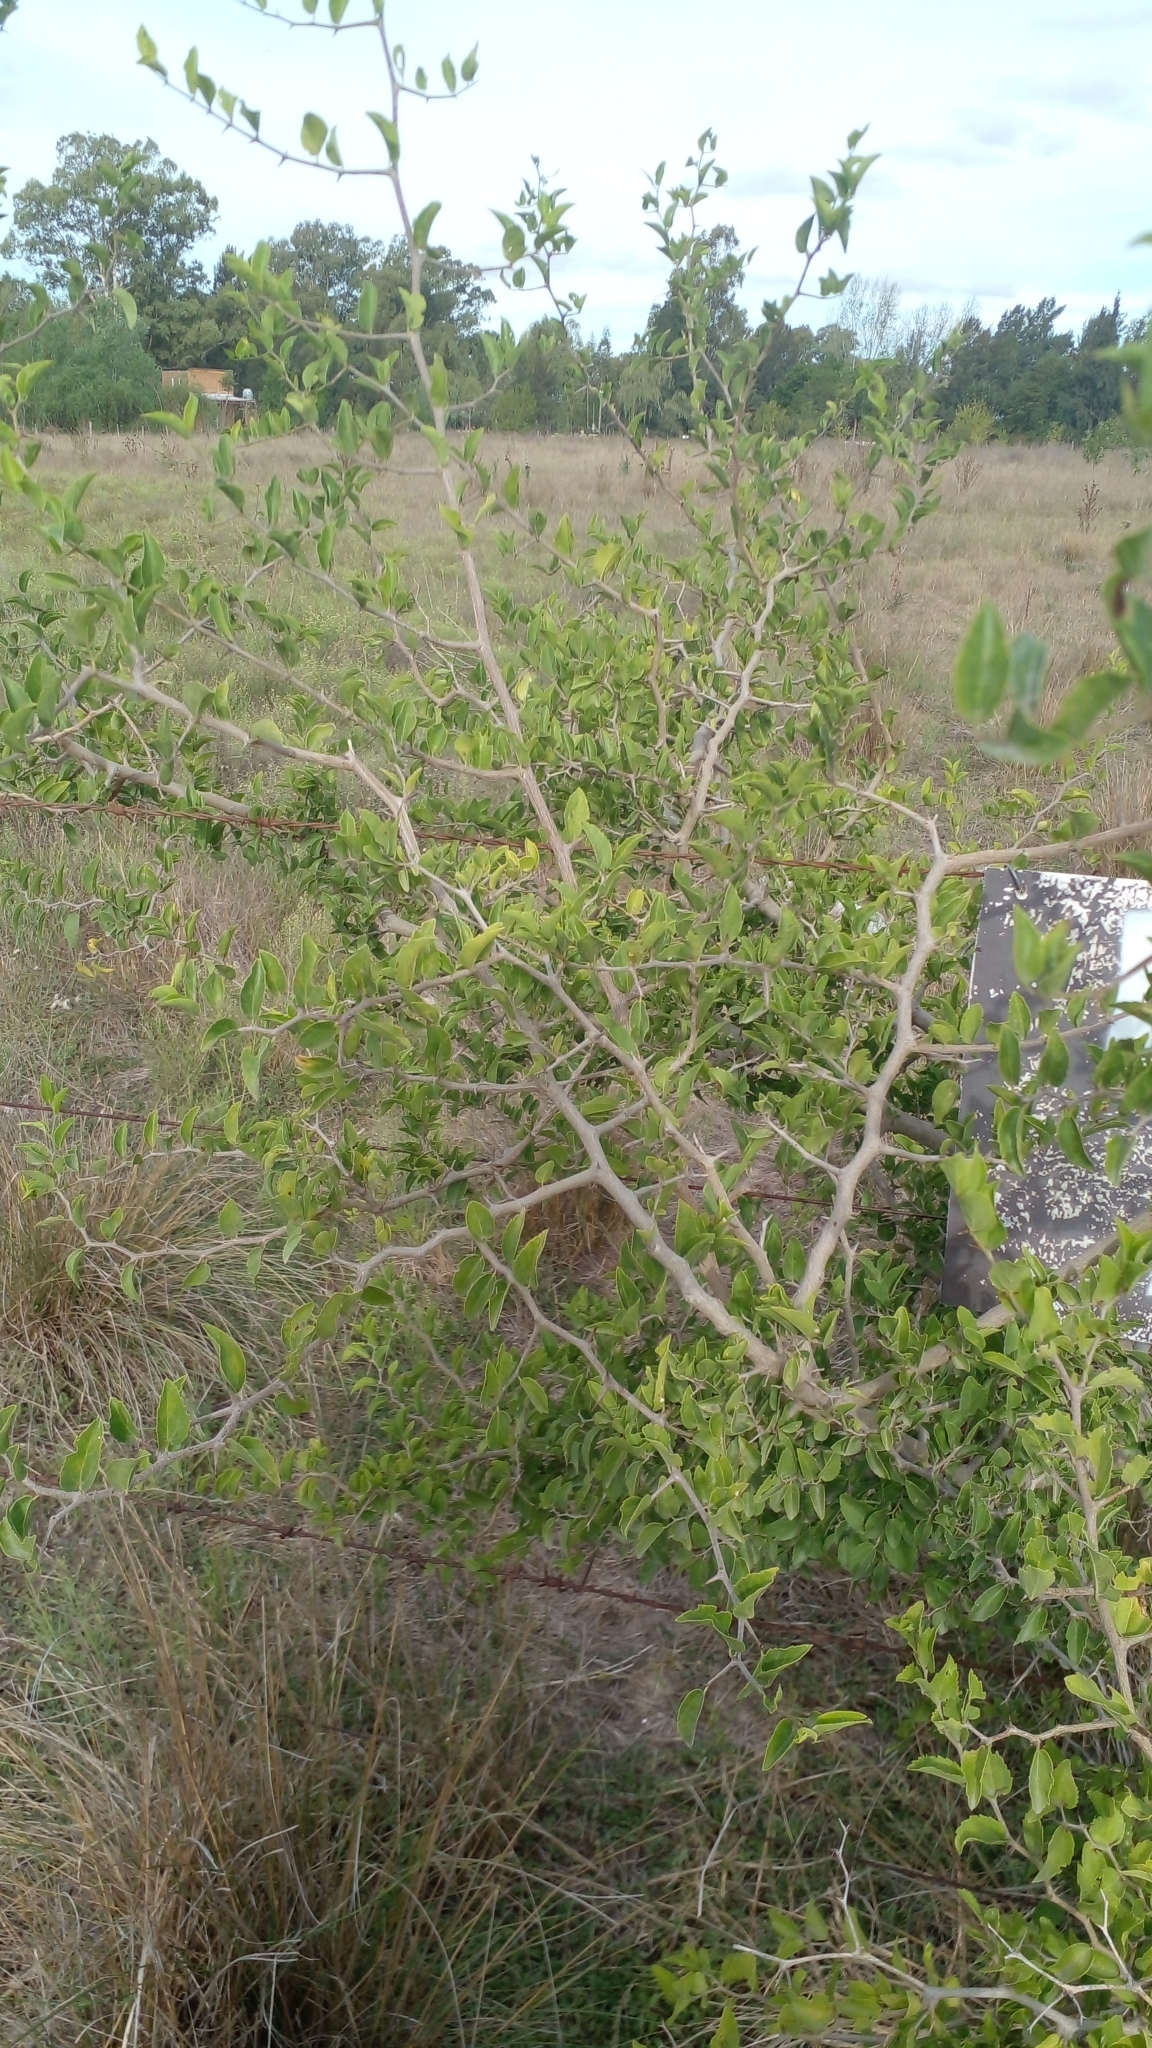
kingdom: Plantae
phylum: Tracheophyta
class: Magnoliopsida
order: Rosales
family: Cannabaceae
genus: Celtis
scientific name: Celtis iguanaea
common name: Iguana hackberry
